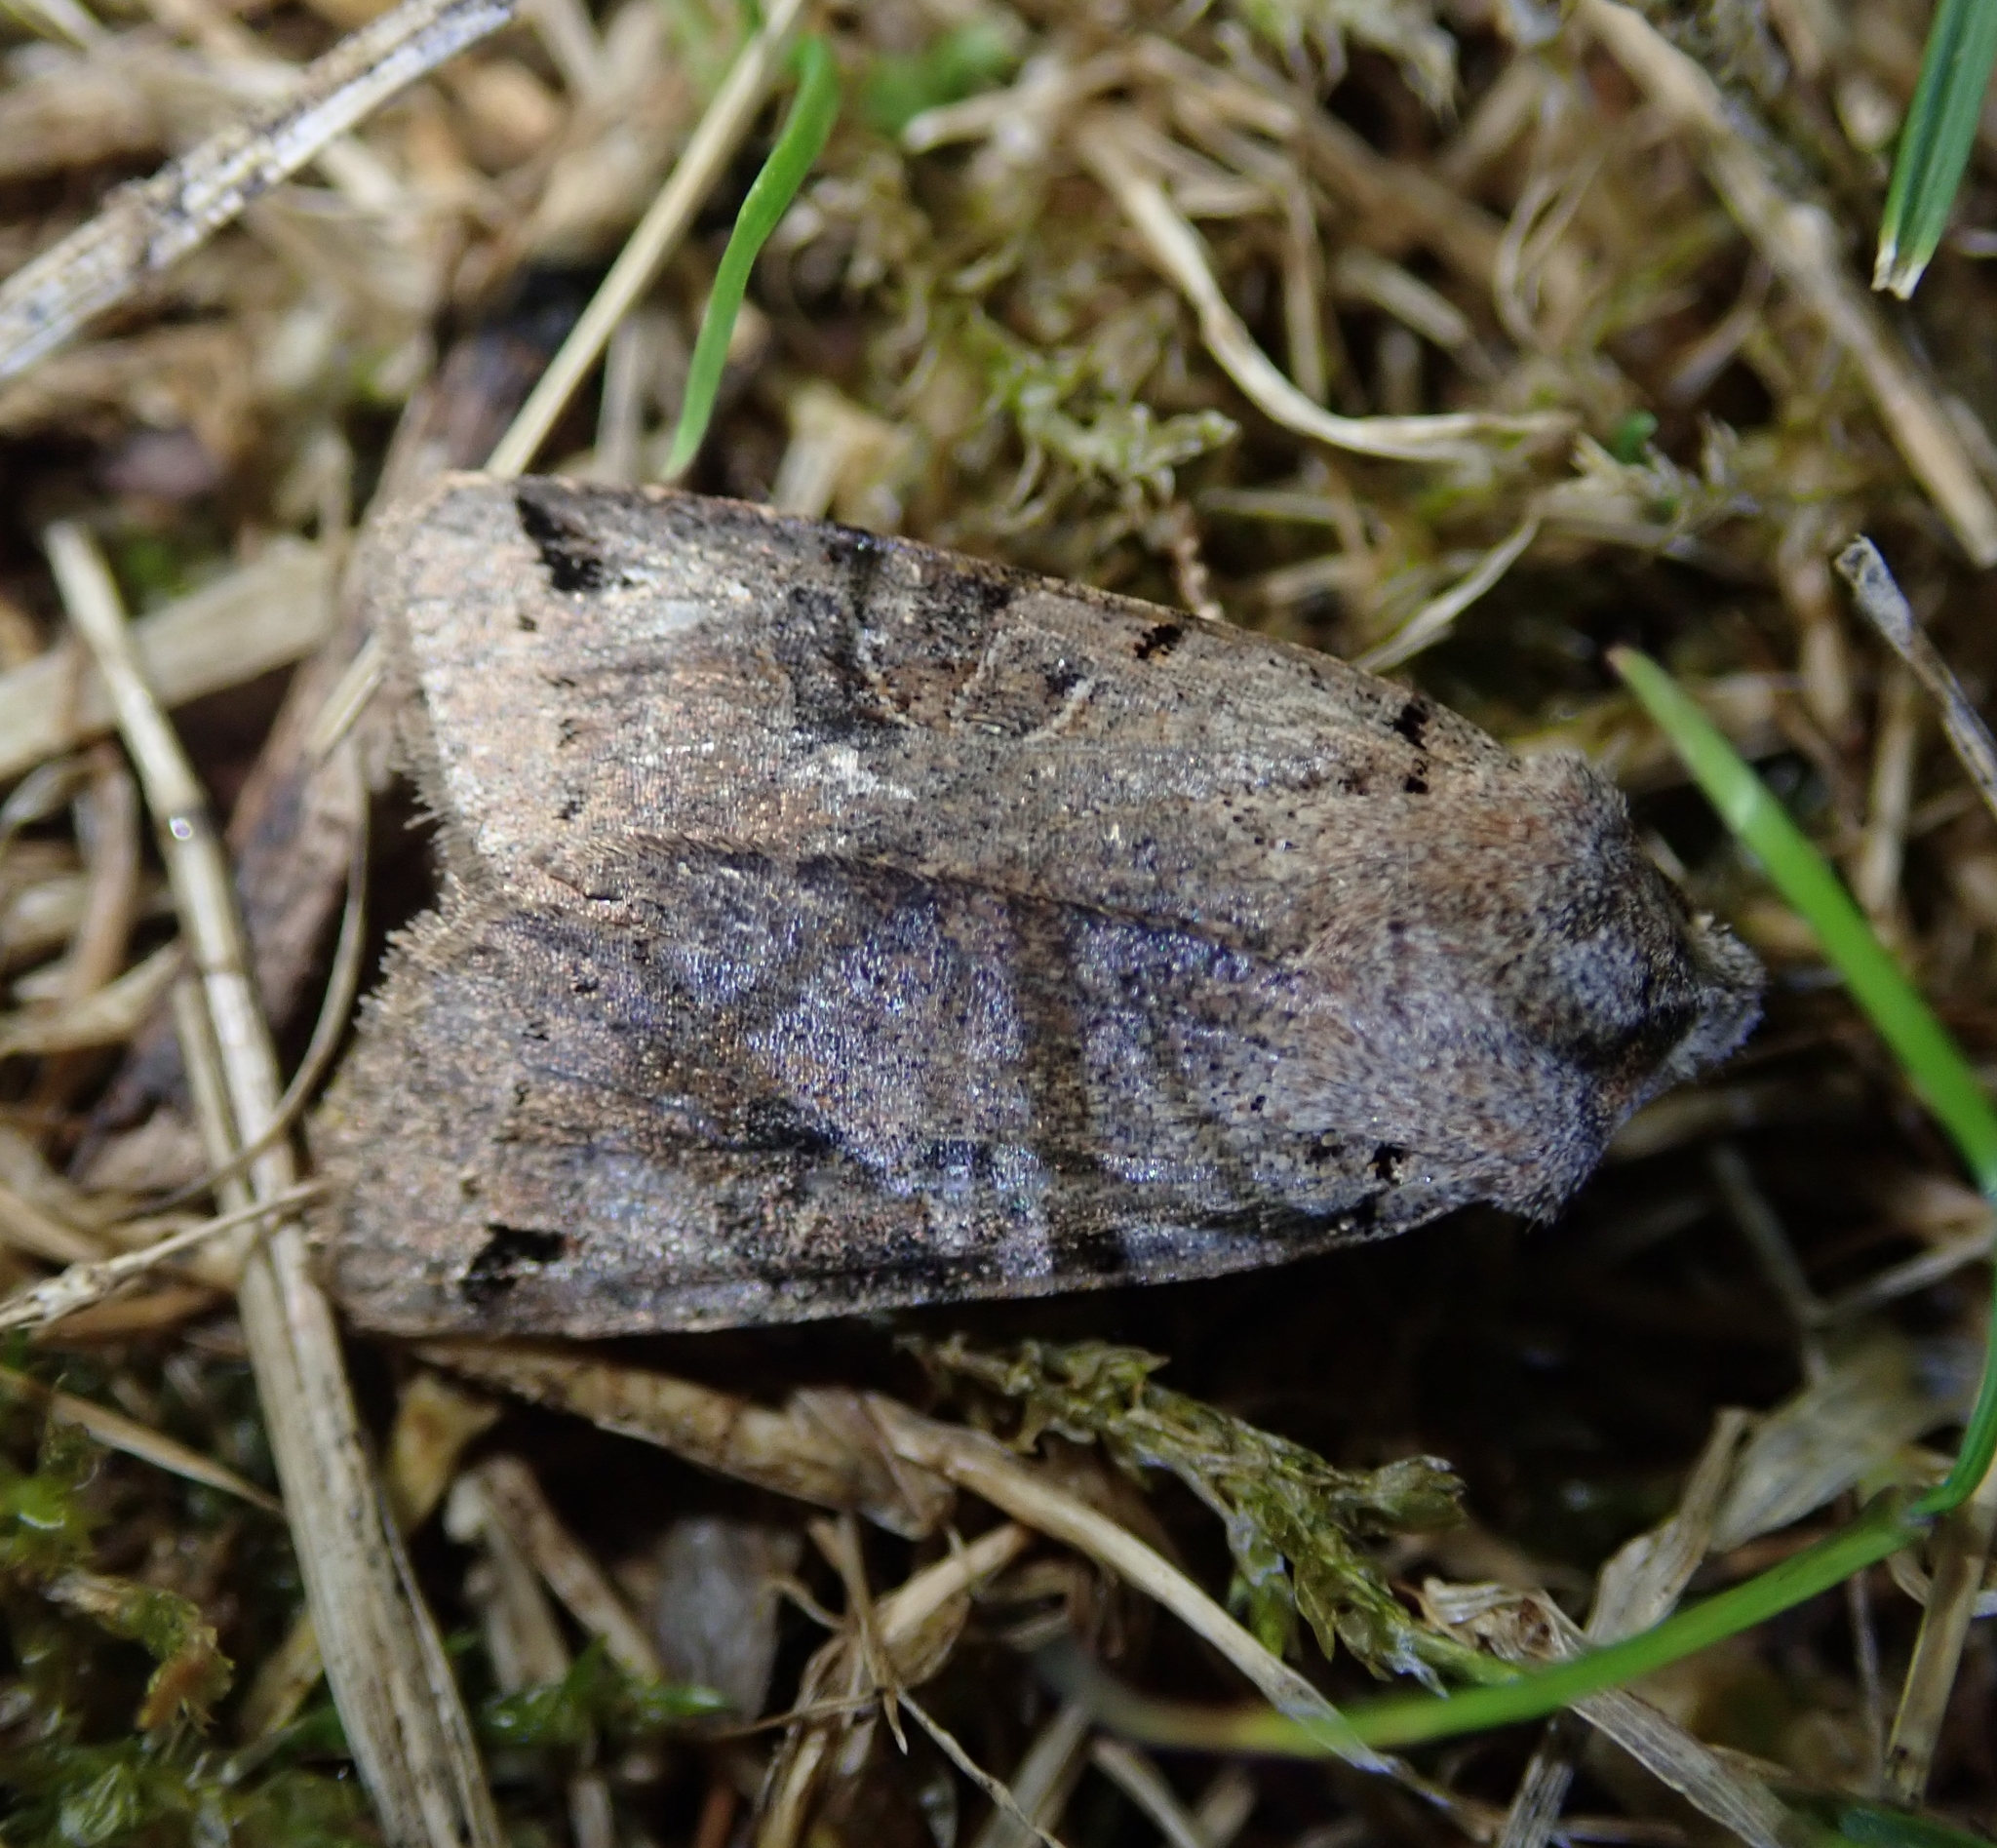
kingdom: Animalia
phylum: Arthropoda
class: Insecta
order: Lepidoptera
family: Noctuidae
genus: Agrochola
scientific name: Agrochola litura
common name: Brown-spot pinion
